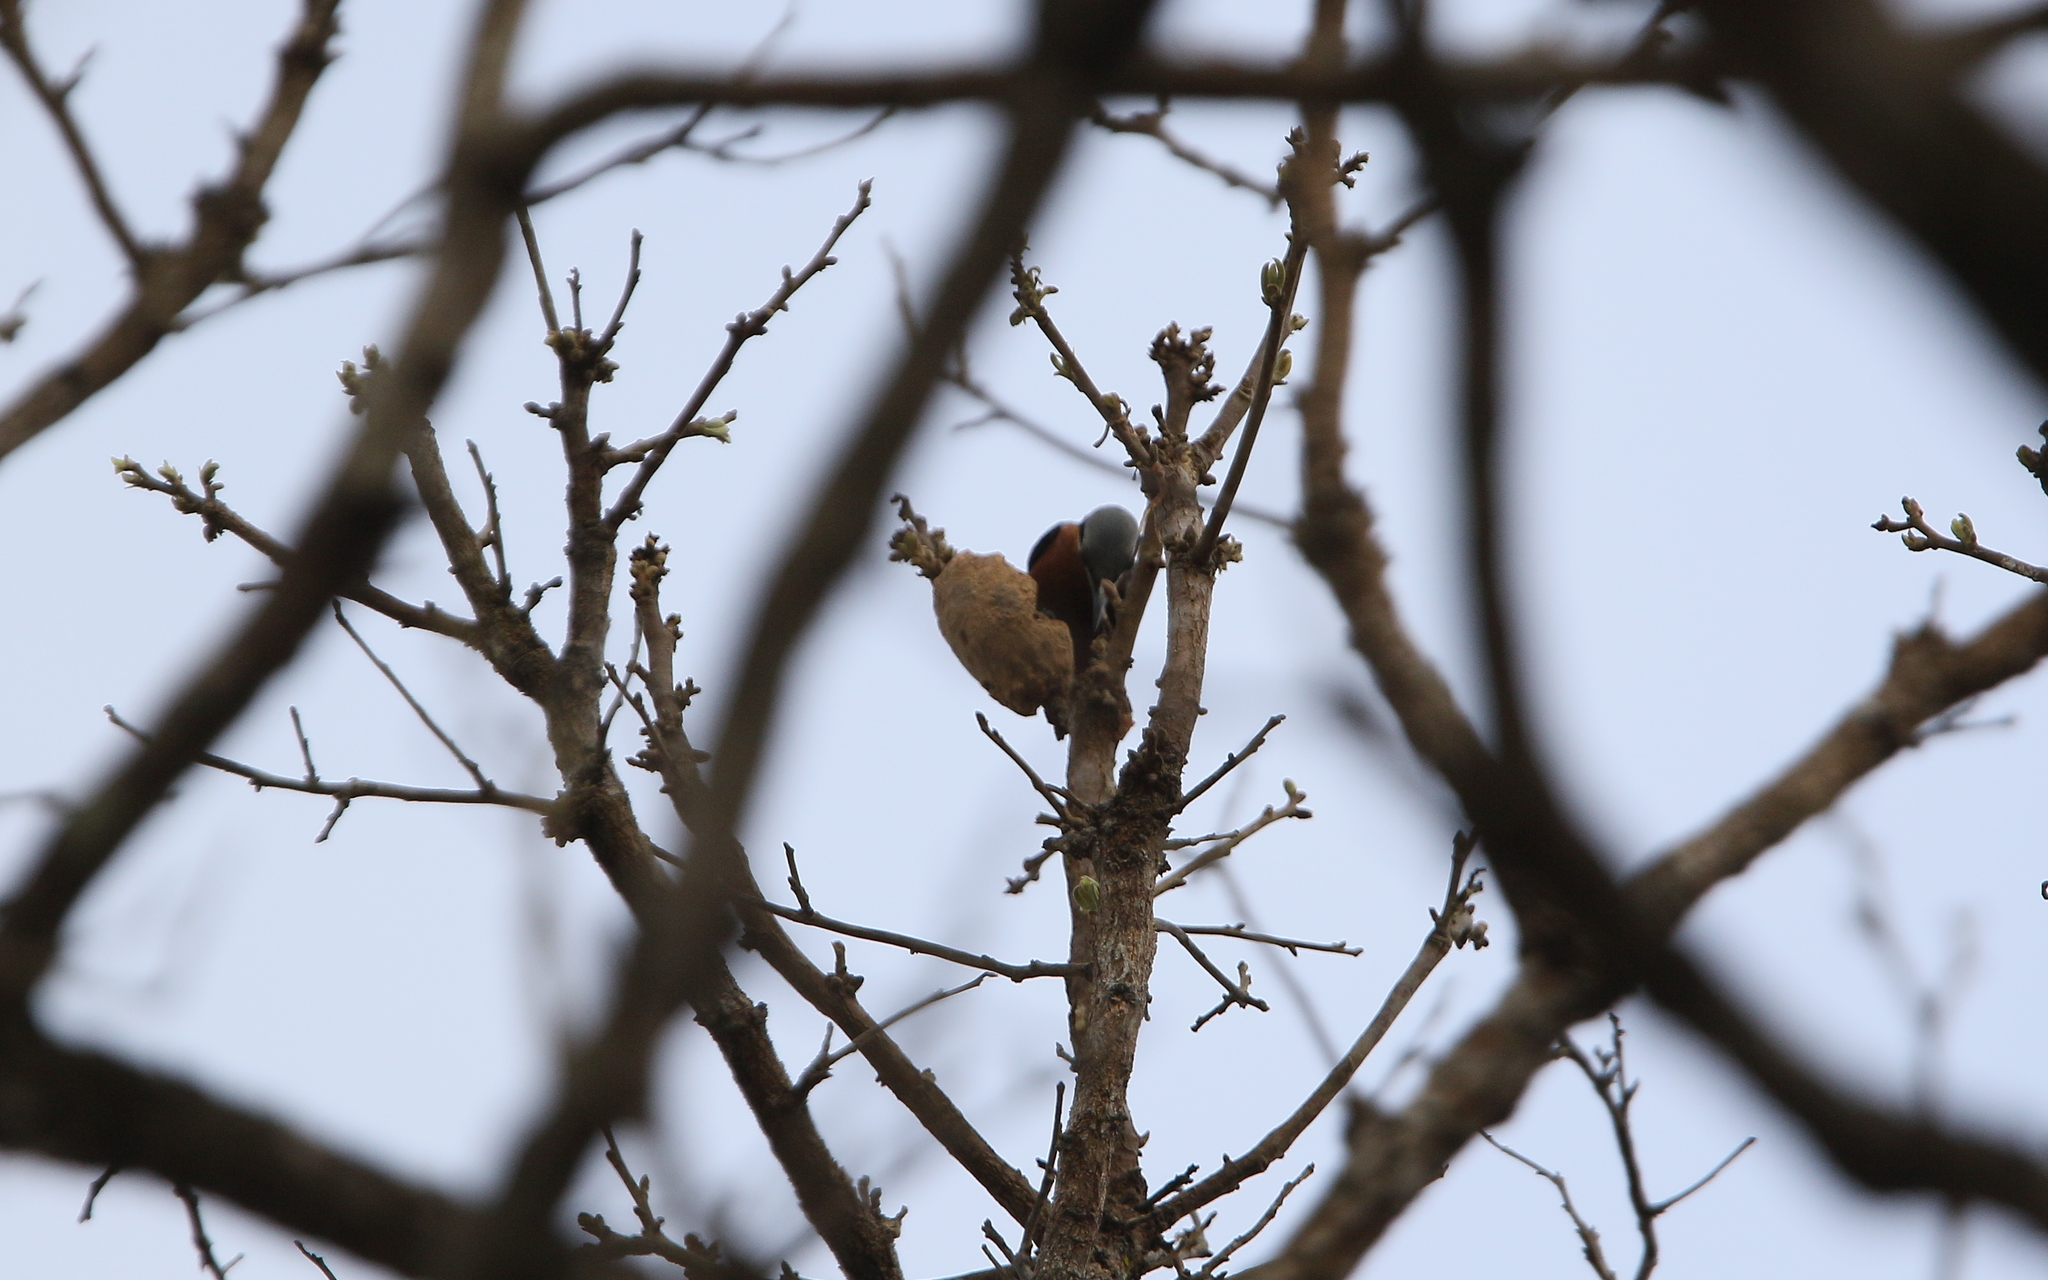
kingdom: Animalia
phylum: Chordata
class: Aves
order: Passeriformes
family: Sittidae
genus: Sitta
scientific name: Sitta neglecta
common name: Burmese nuthatch
